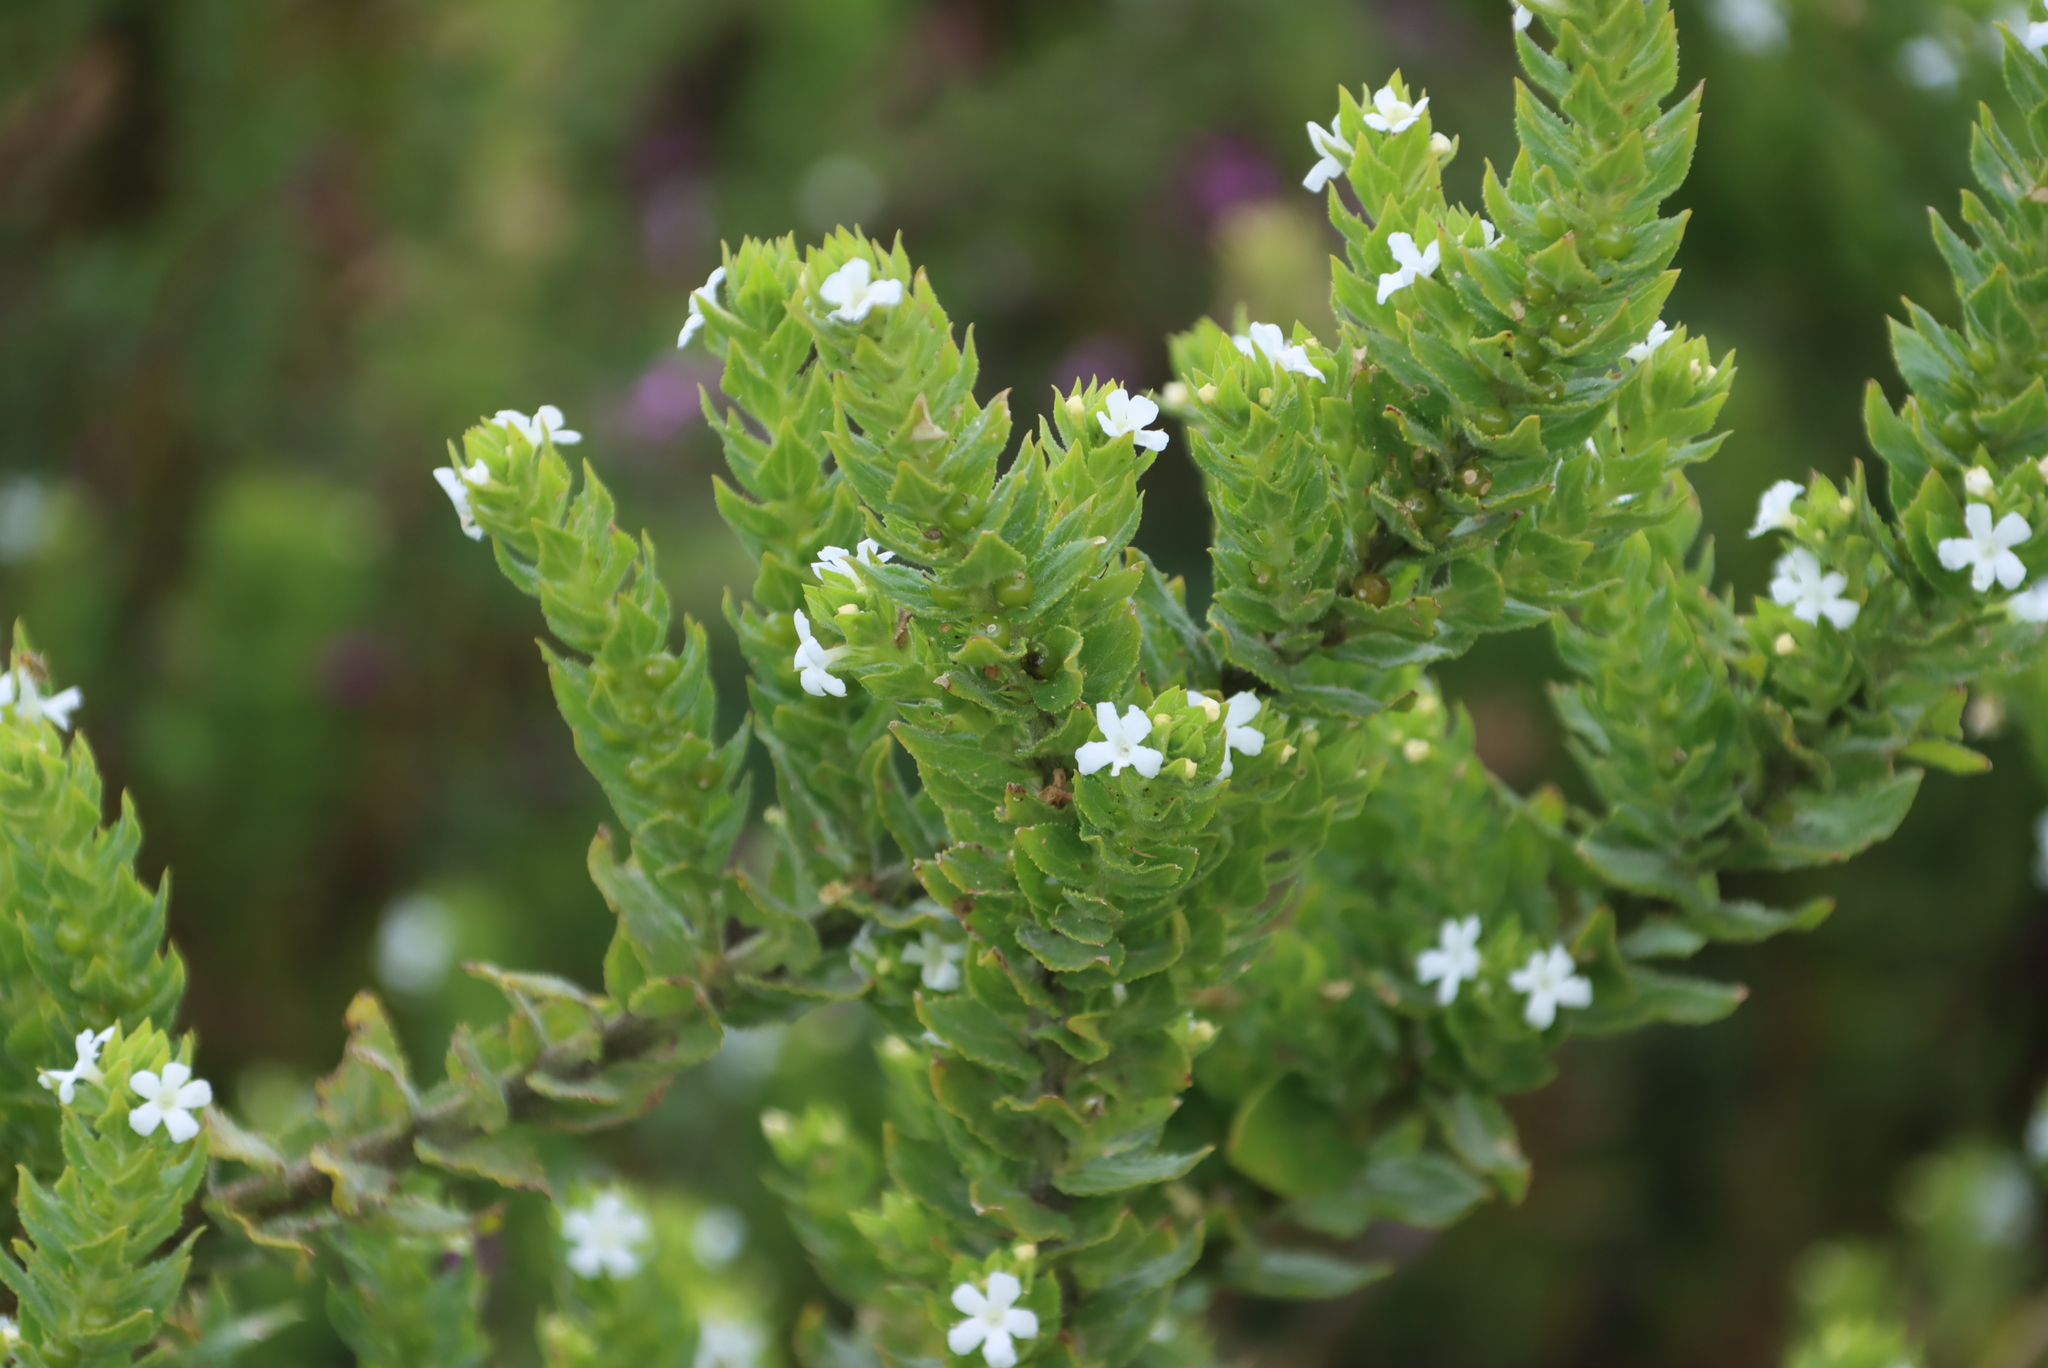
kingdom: Plantae
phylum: Tracheophyta
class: Magnoliopsida
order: Lamiales
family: Scrophulariaceae
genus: Oftia
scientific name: Oftia africana
